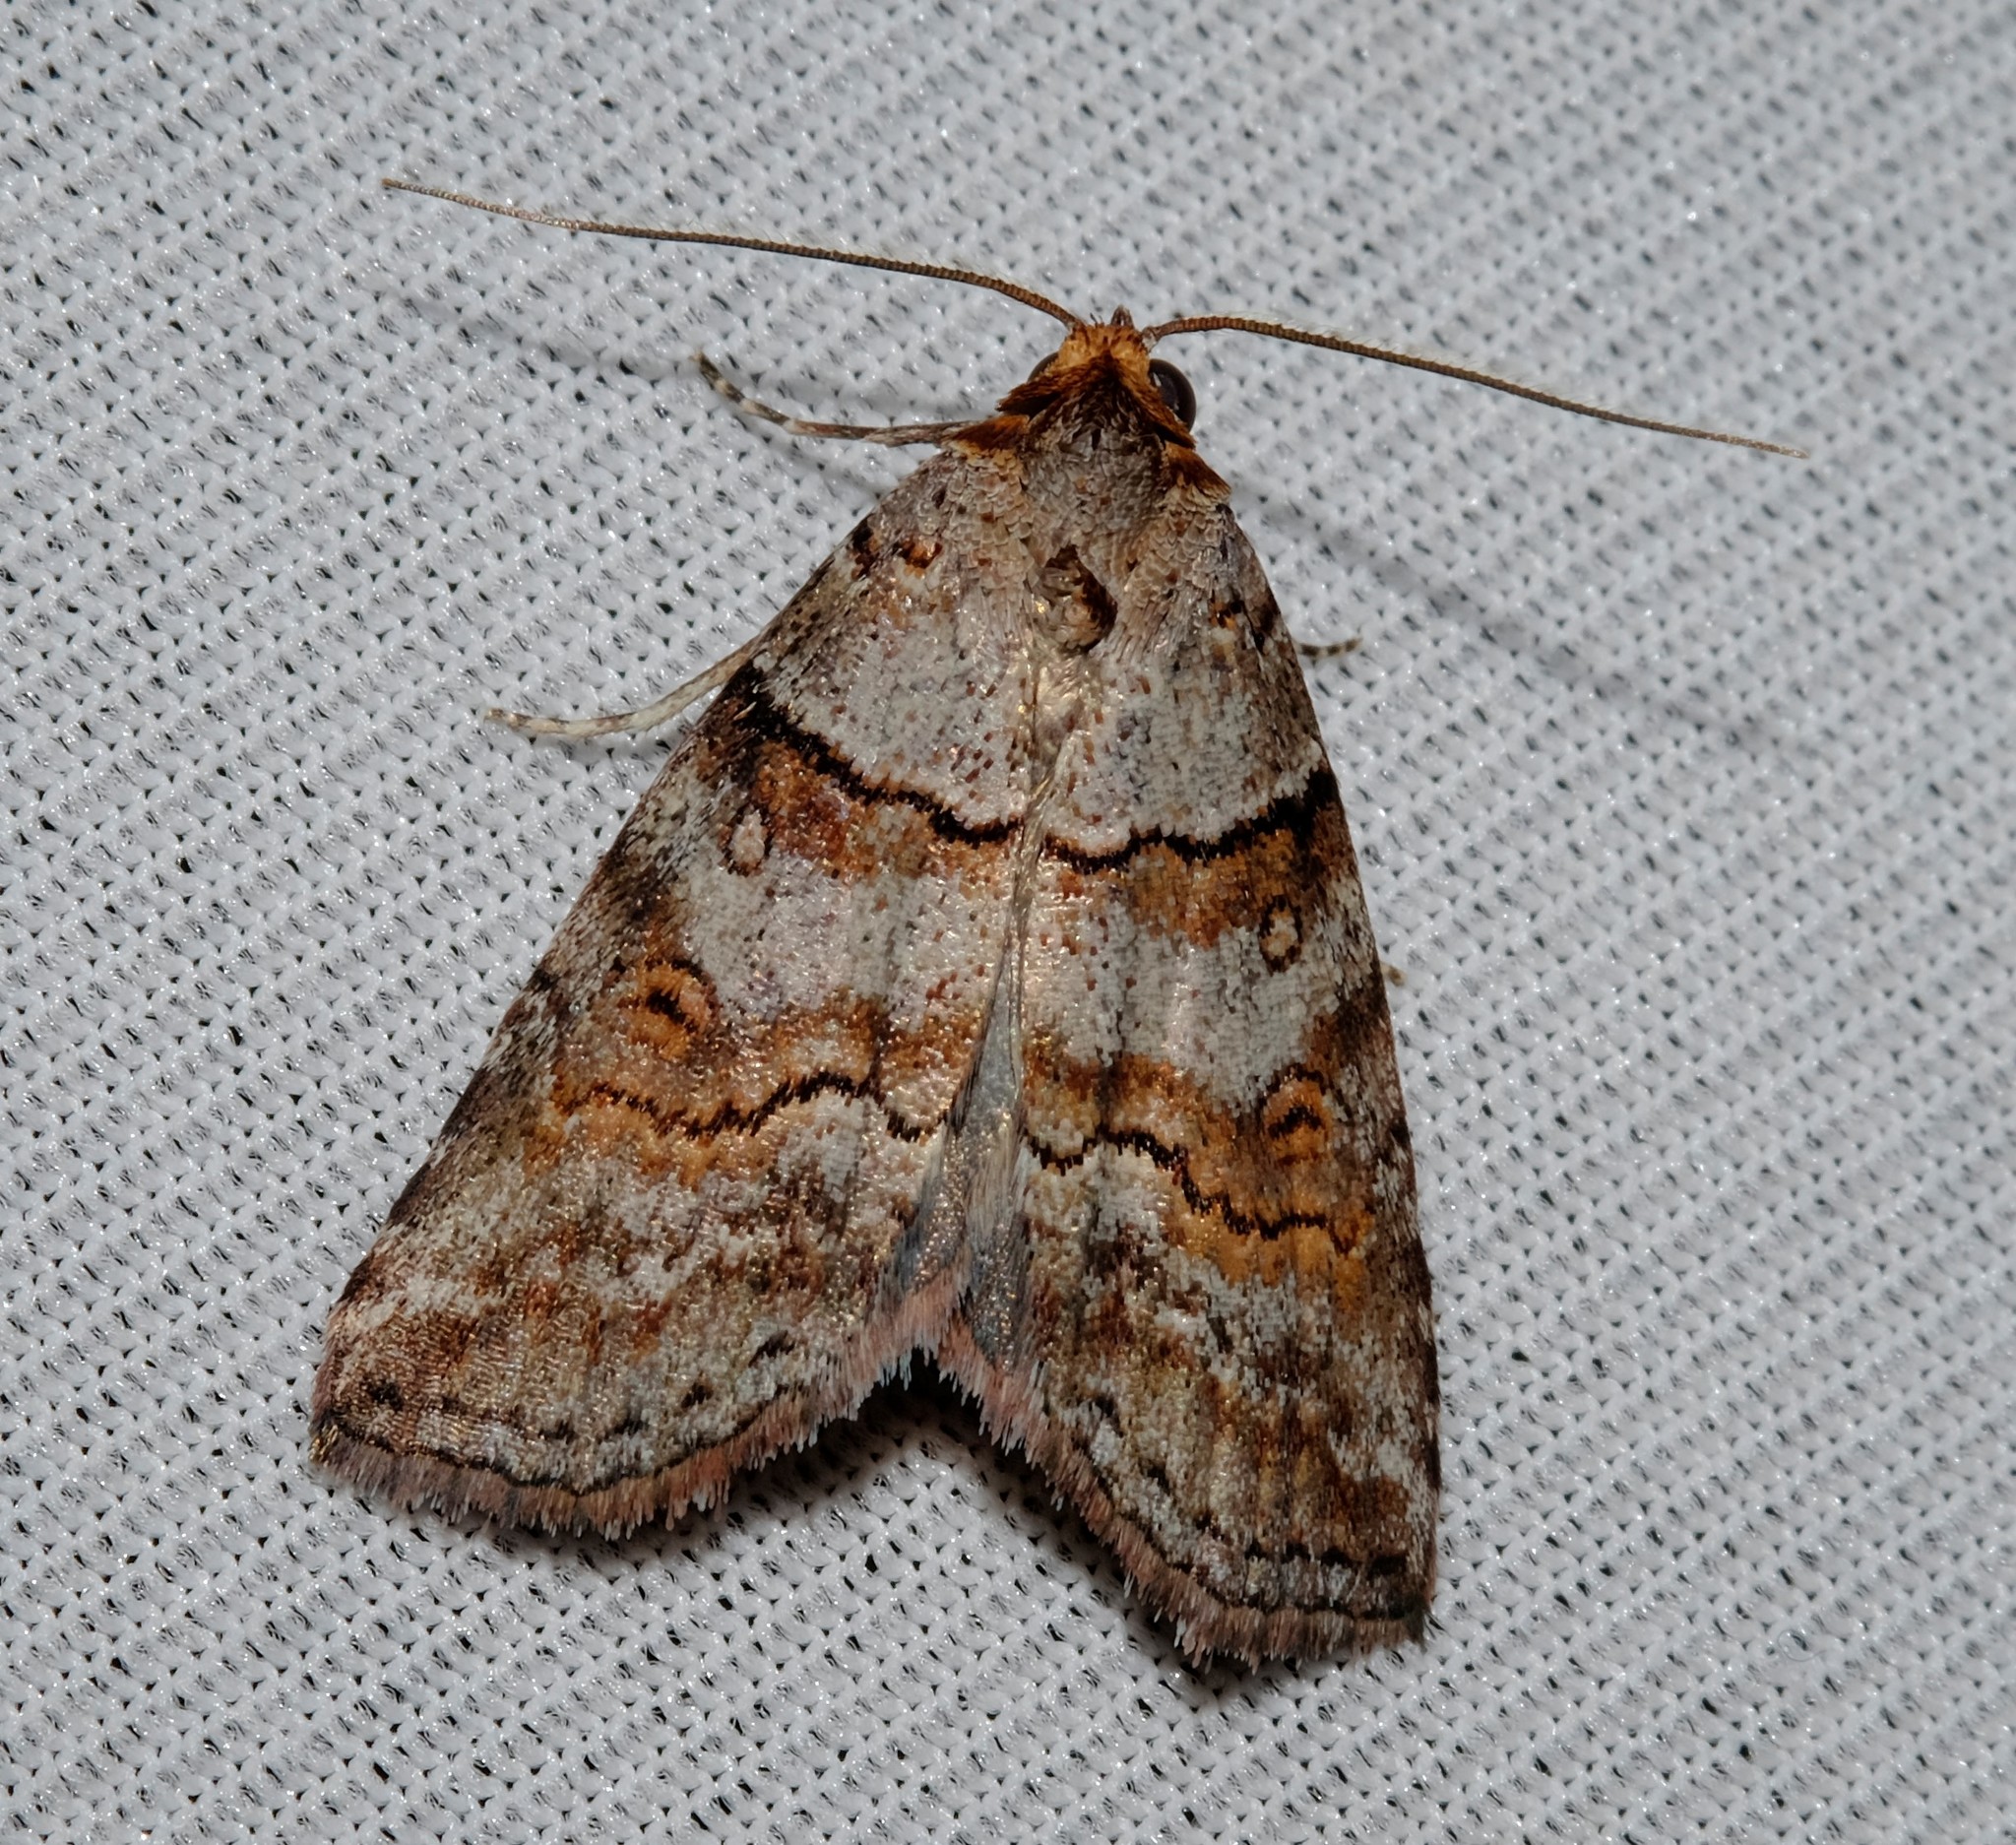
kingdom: Animalia
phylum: Arthropoda
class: Insecta
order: Lepidoptera
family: Nolidae
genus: Calathusa
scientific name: Calathusa hypotherma
